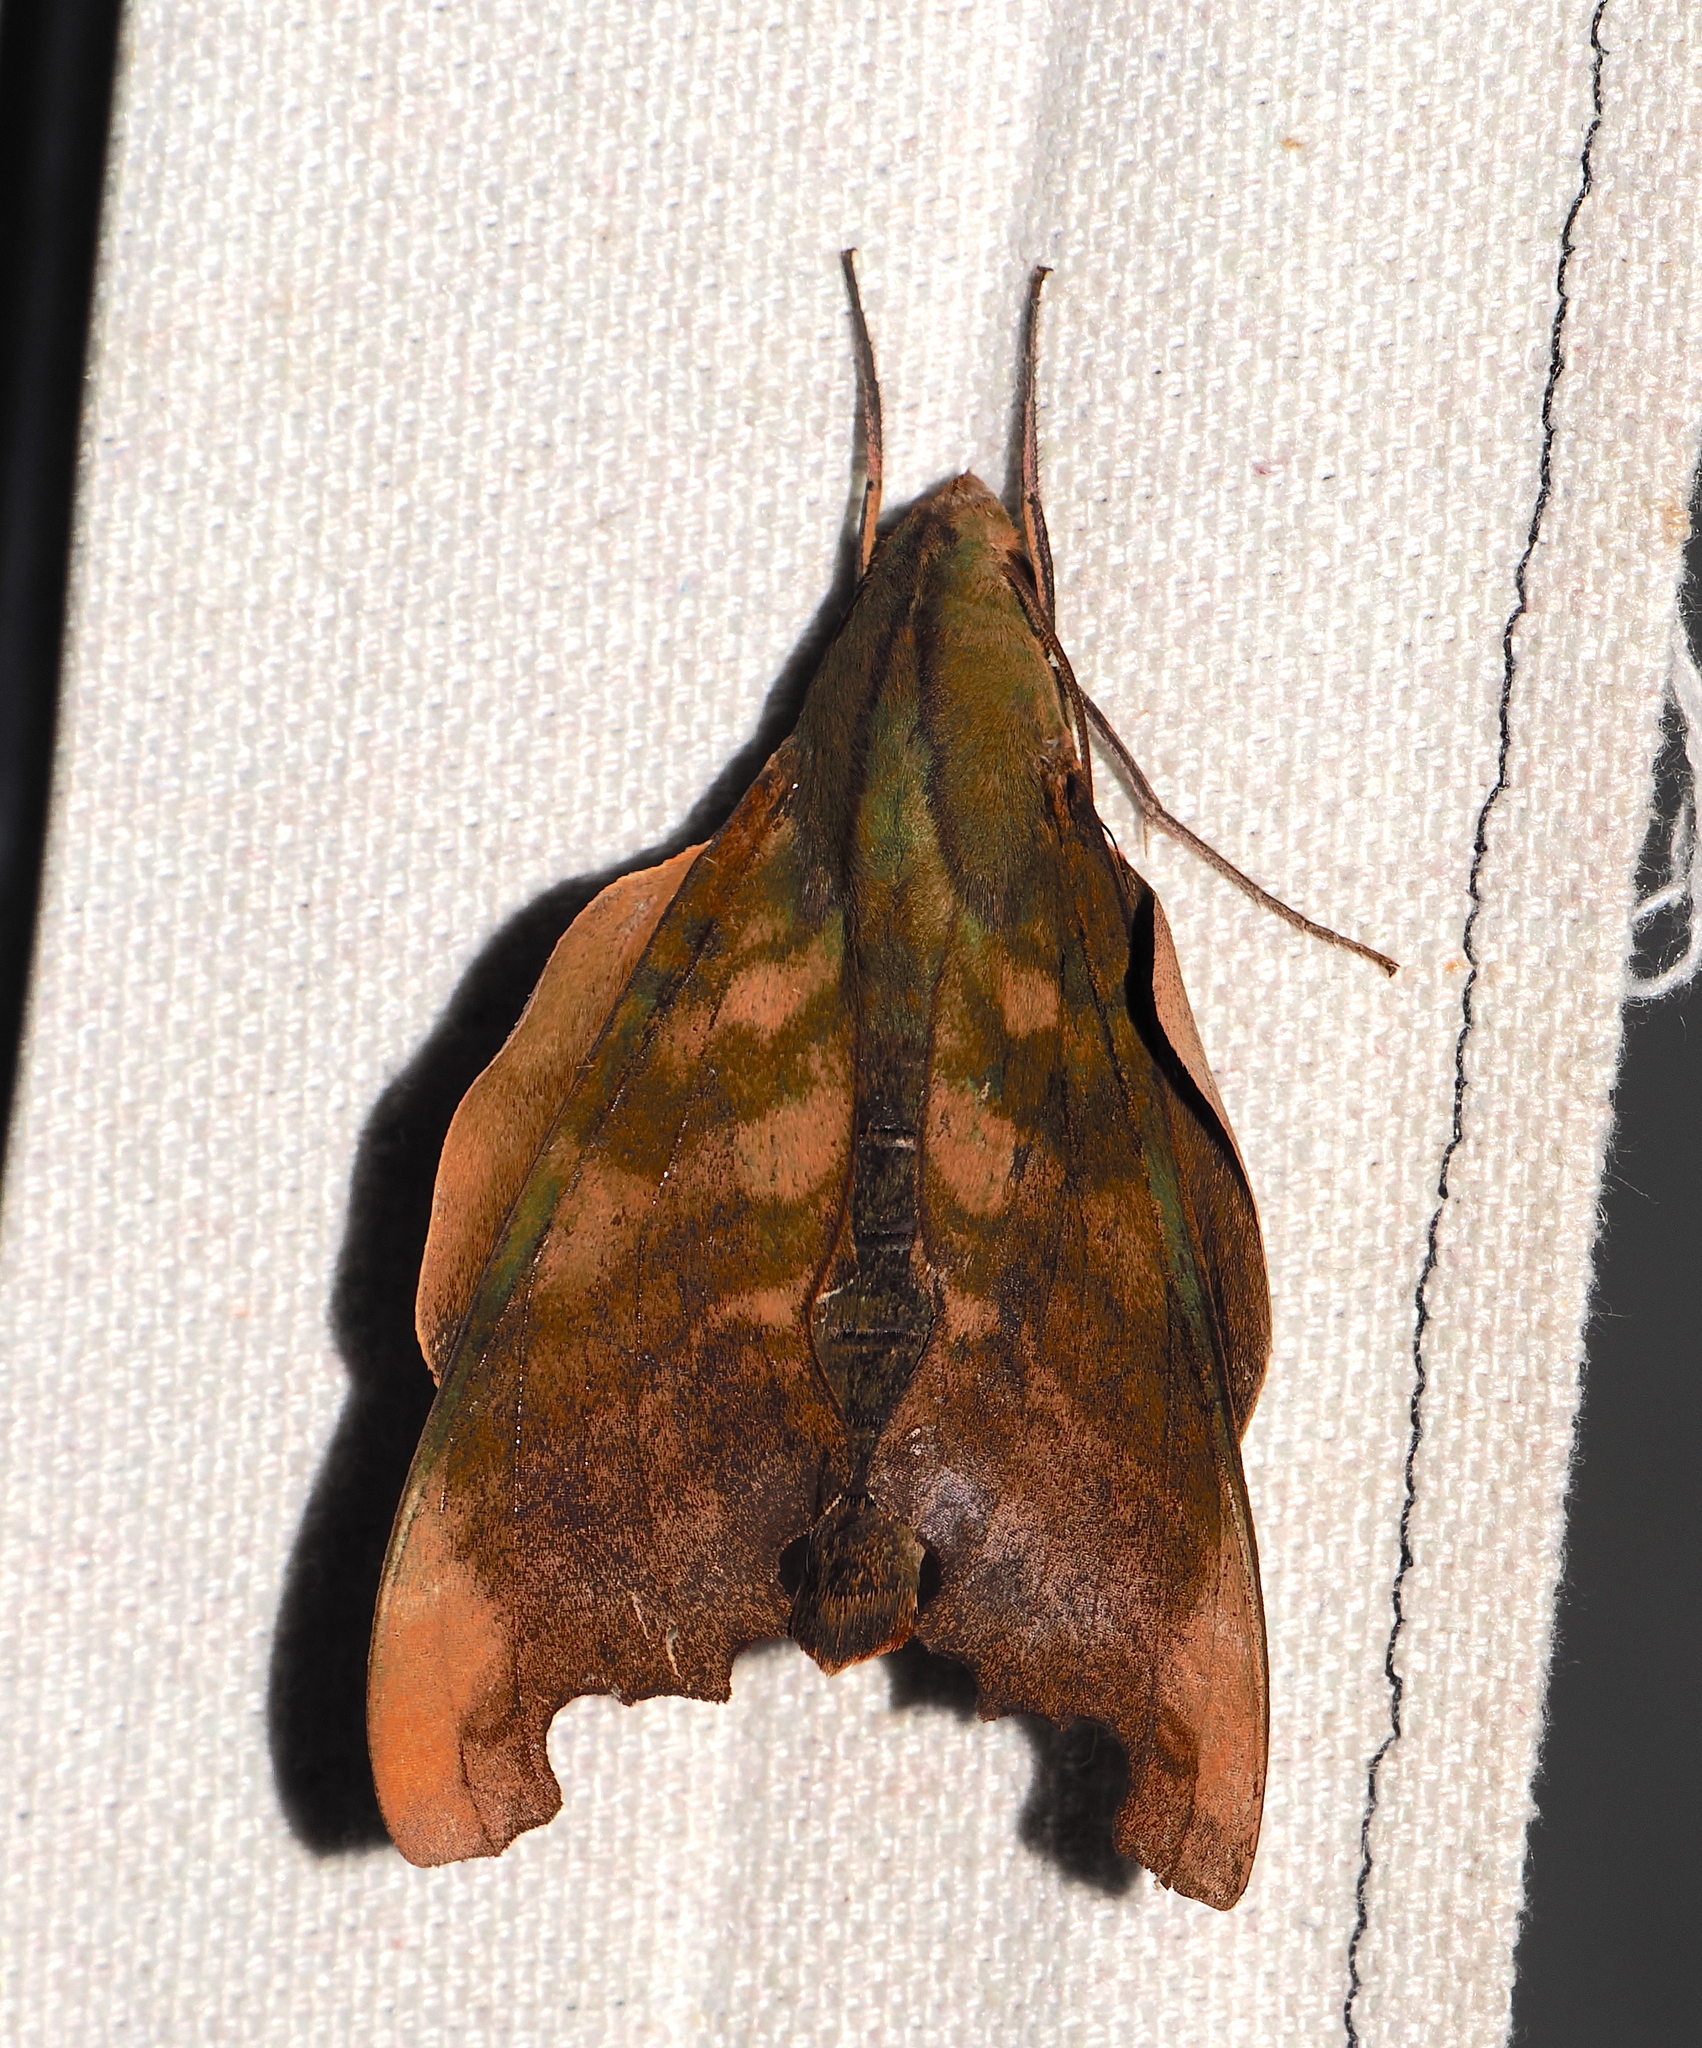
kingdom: Animalia
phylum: Arthropoda
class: Insecta
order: Lepidoptera
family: Sphingidae
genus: Stolidoptera
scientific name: Stolidoptera tachasara
